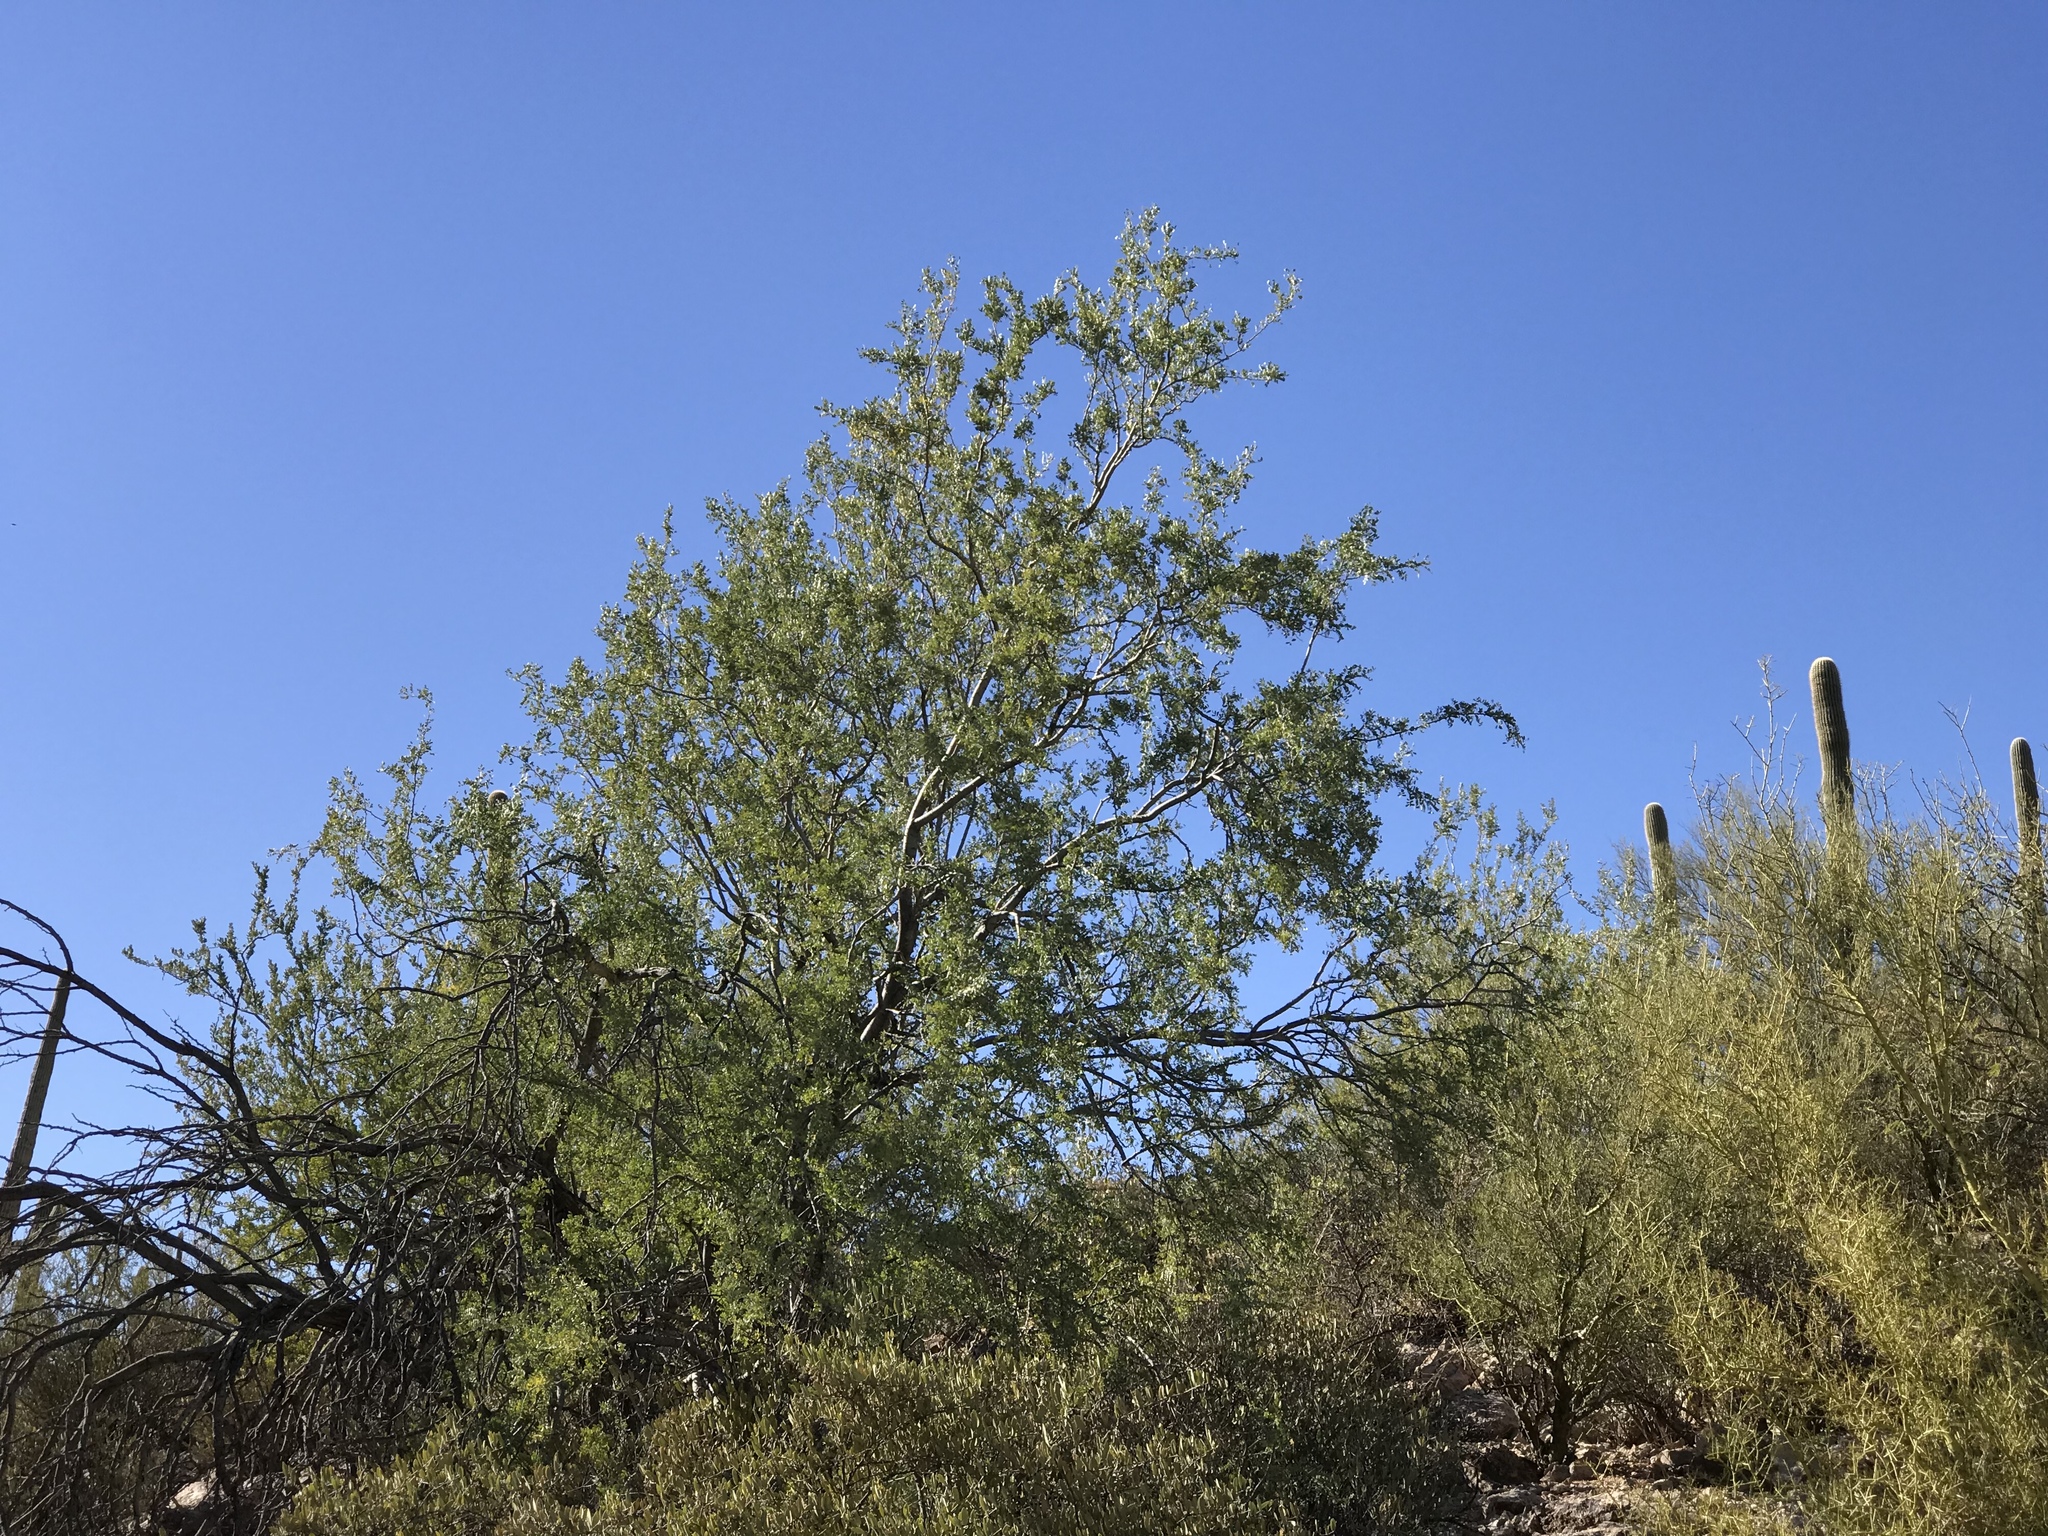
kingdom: Plantae
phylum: Tracheophyta
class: Magnoliopsida
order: Fabales
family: Fabaceae
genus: Olneya
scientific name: Olneya tesota
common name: Desert ironwood
